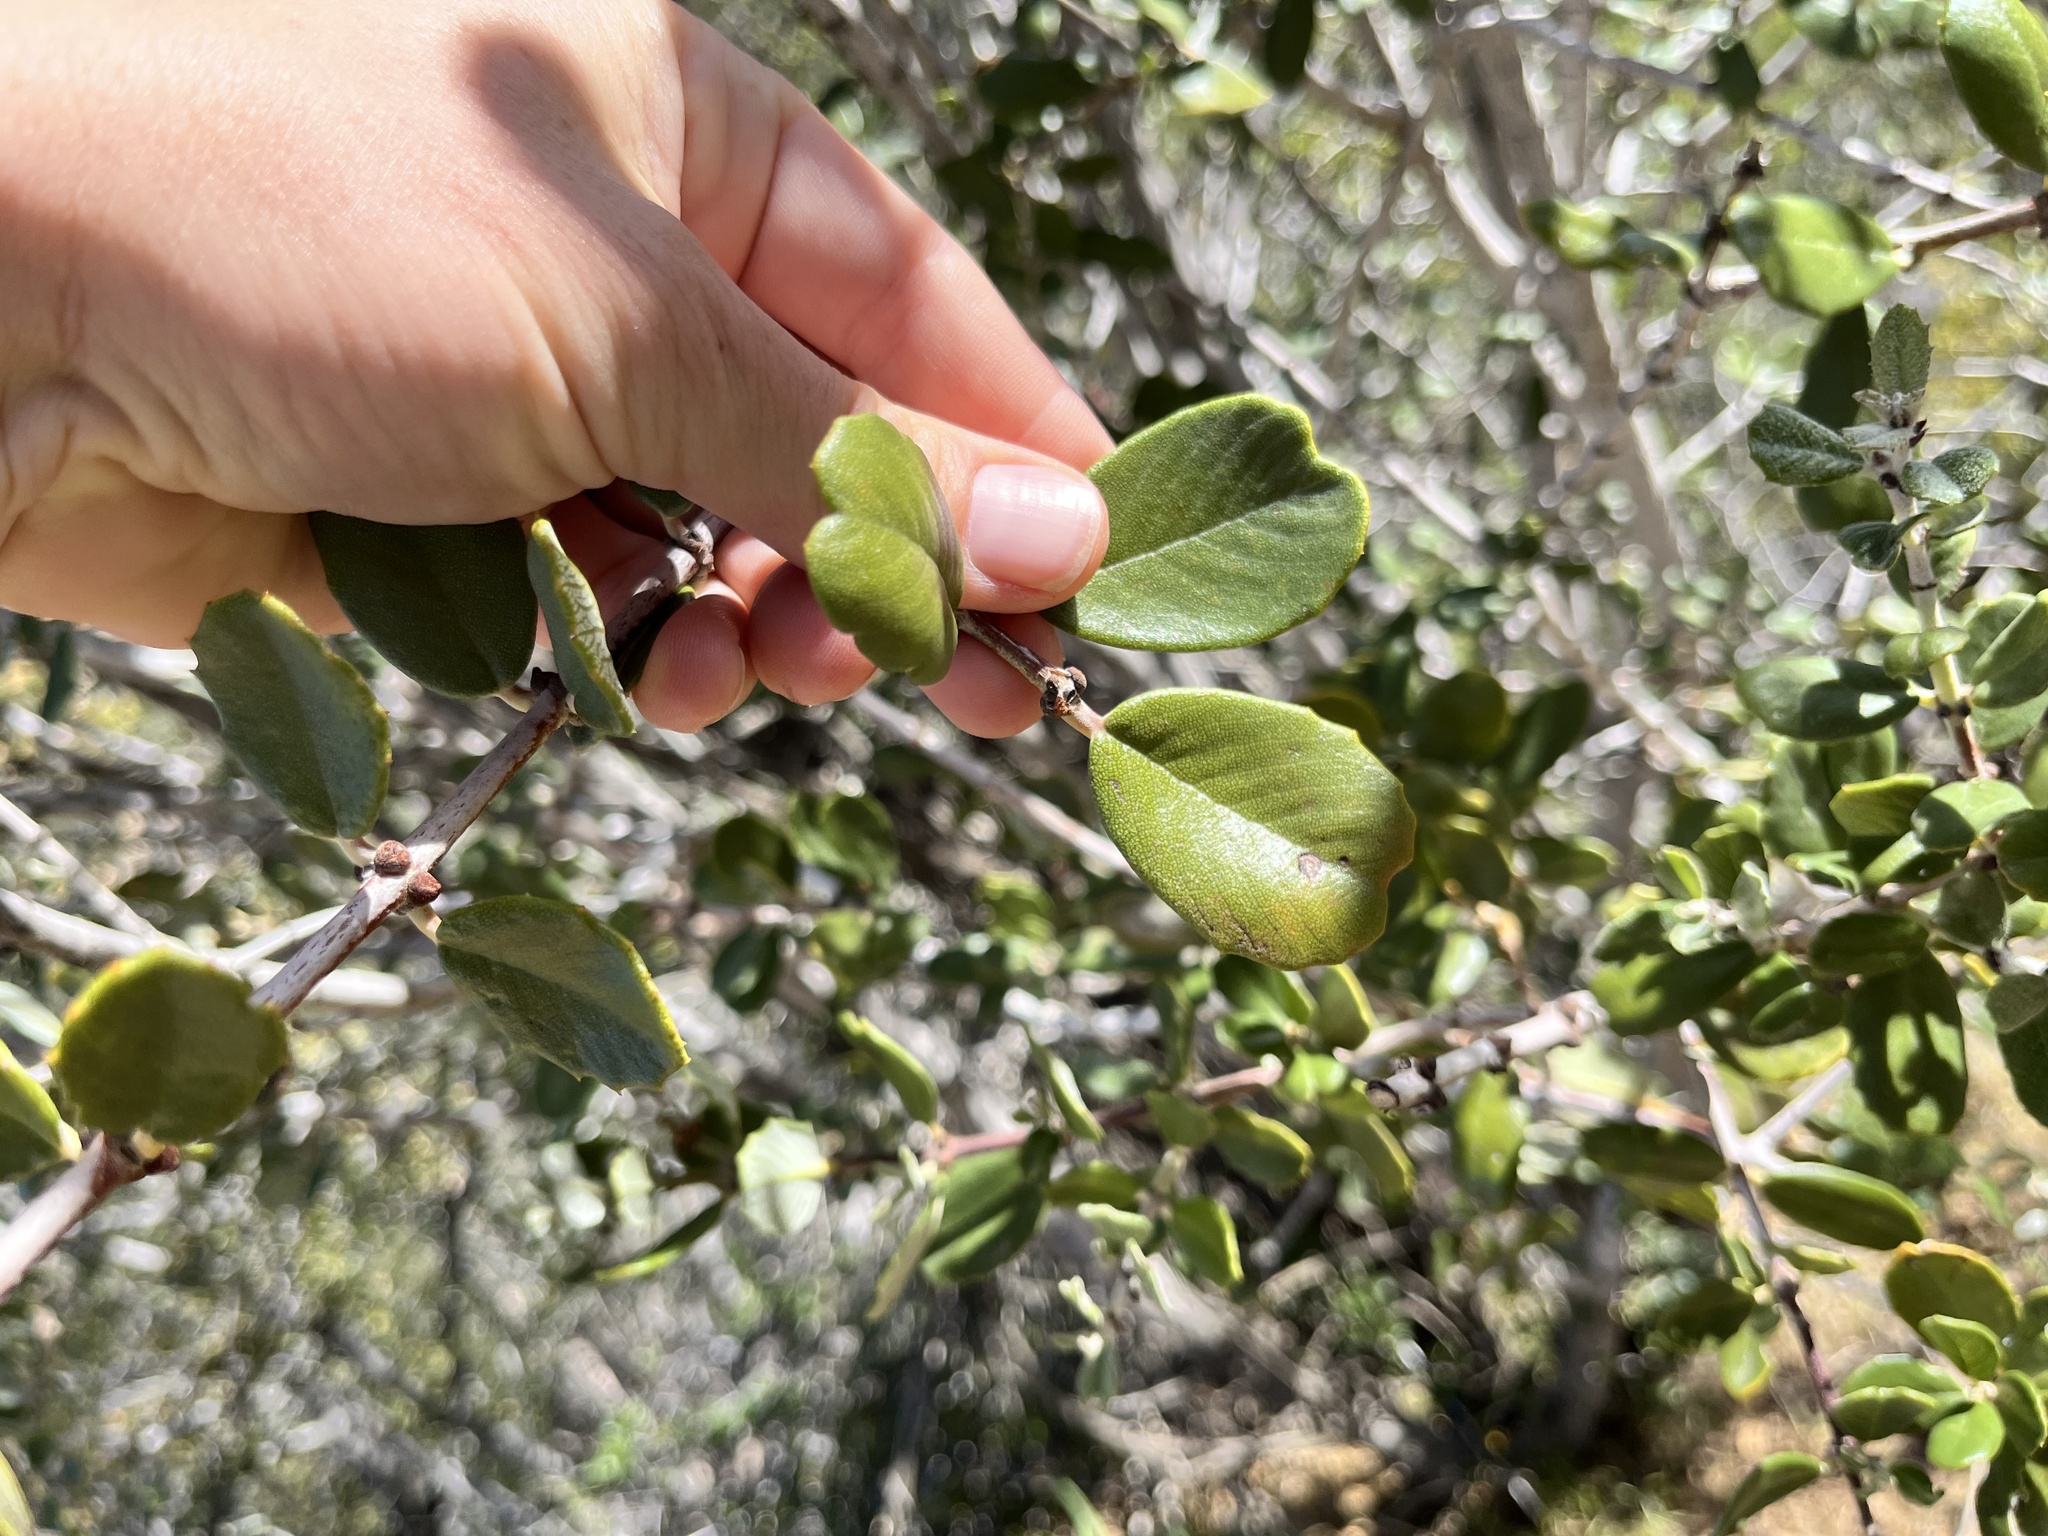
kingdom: Plantae
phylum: Tracheophyta
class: Magnoliopsida
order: Rosales
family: Rhamnaceae
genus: Ceanothus
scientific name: Ceanothus crassifolius
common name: Hoaryleaf ceanothus
